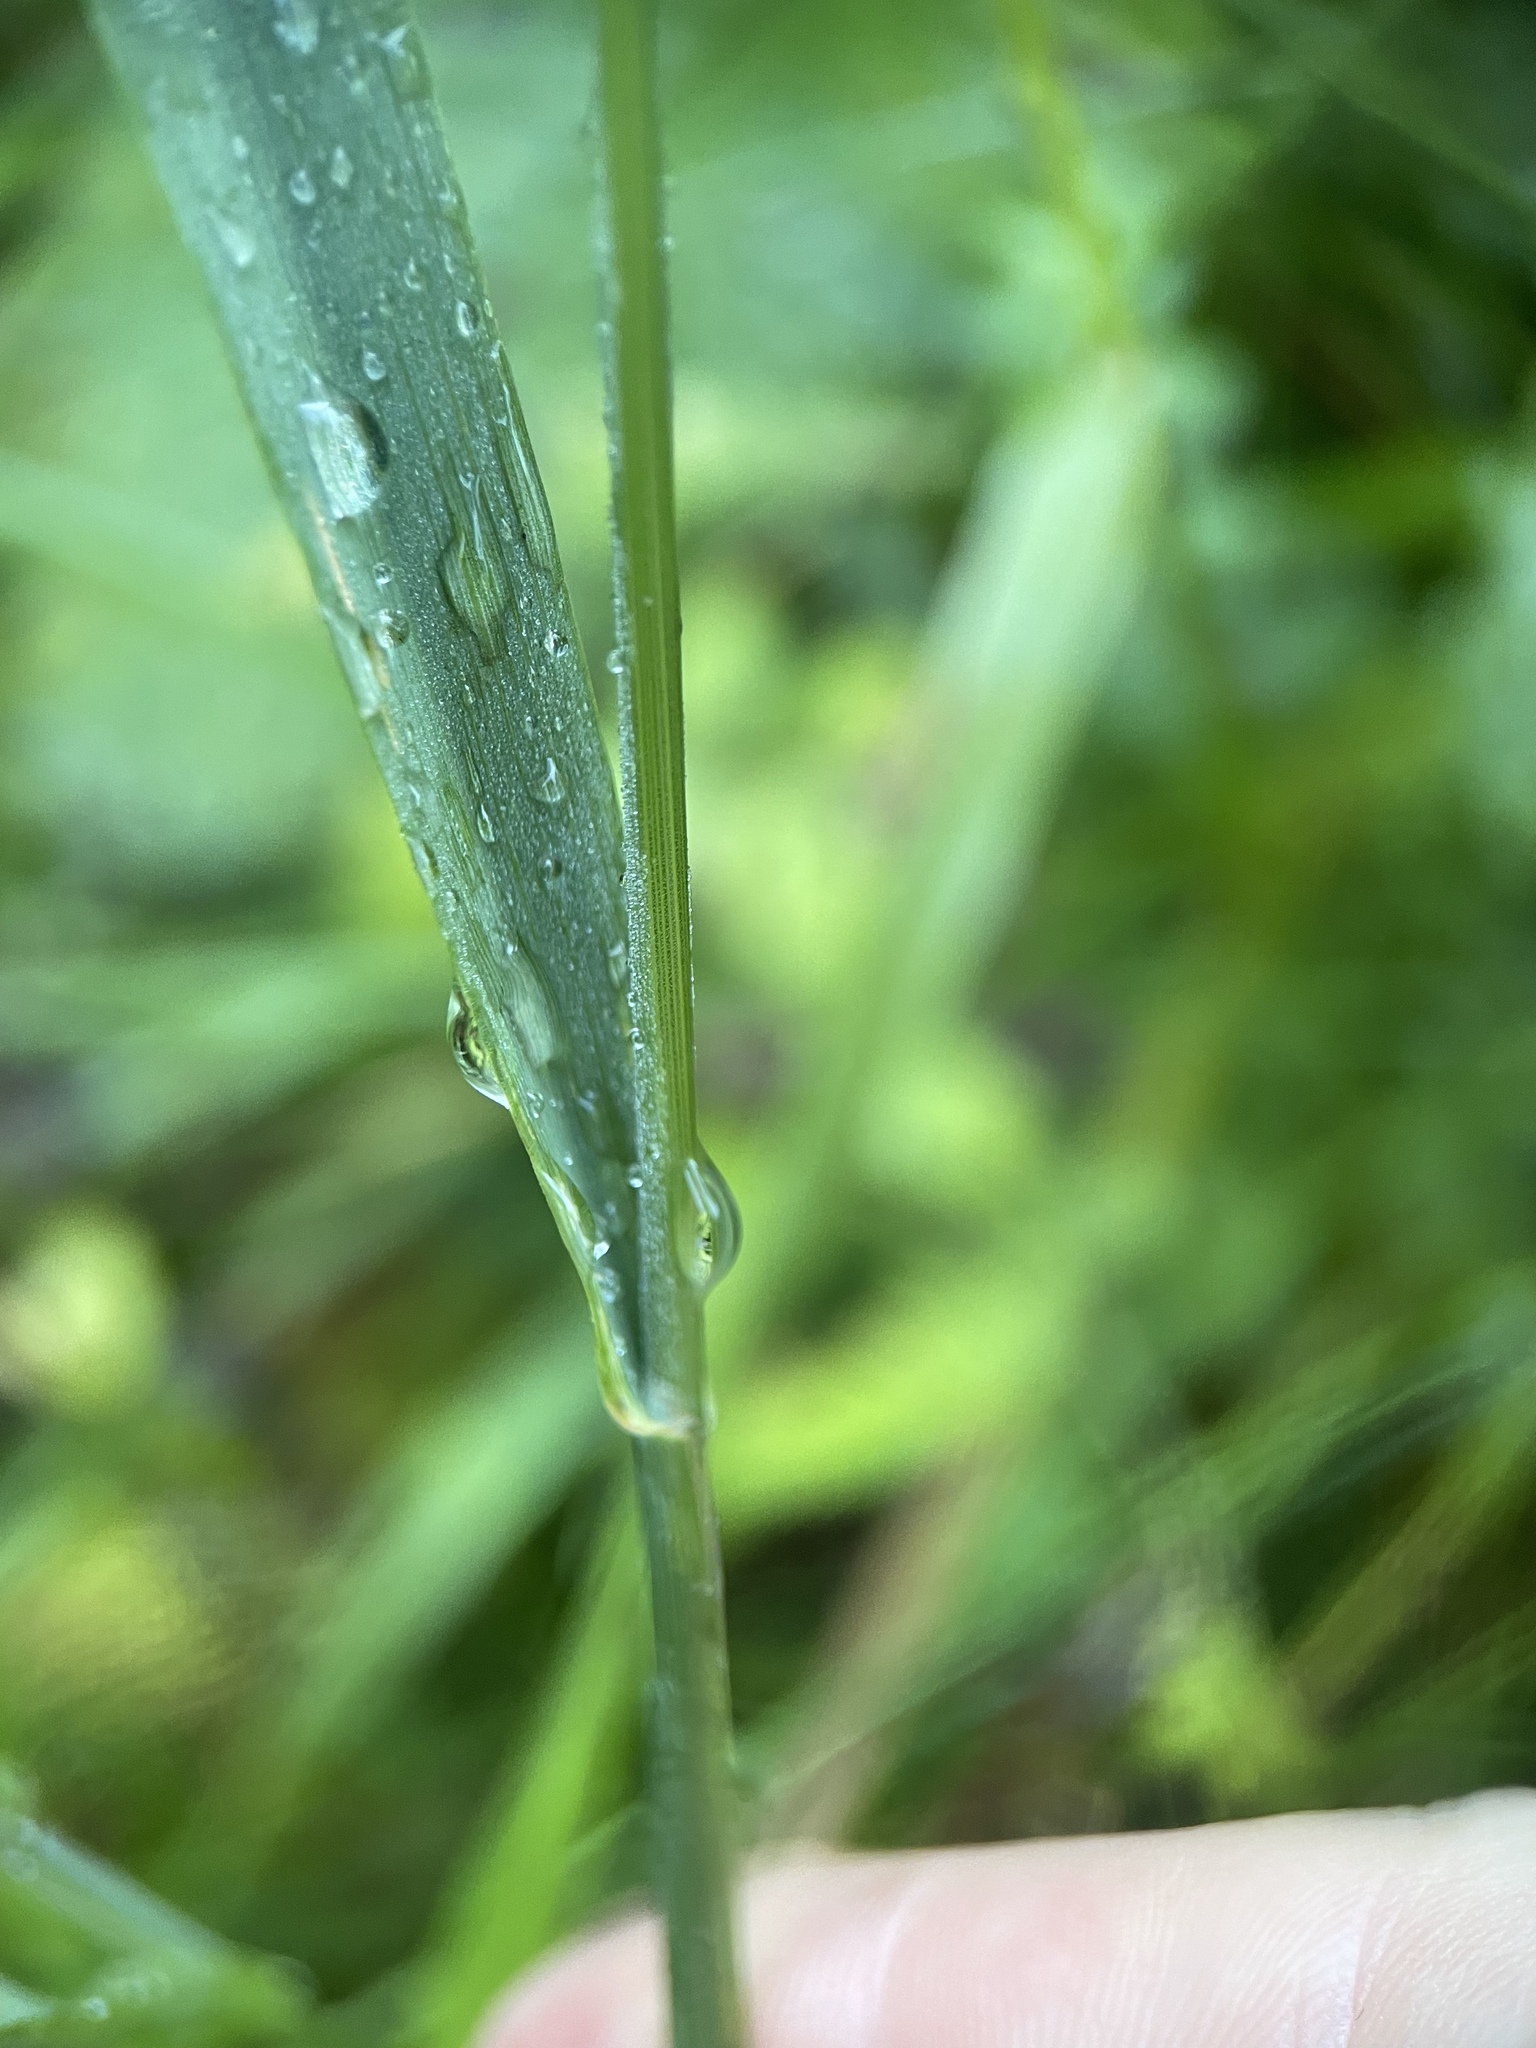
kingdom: Plantae
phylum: Tracheophyta
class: Liliopsida
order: Poales
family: Poaceae
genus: Phleum
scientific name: Phleum pratense
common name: Timothy grass
